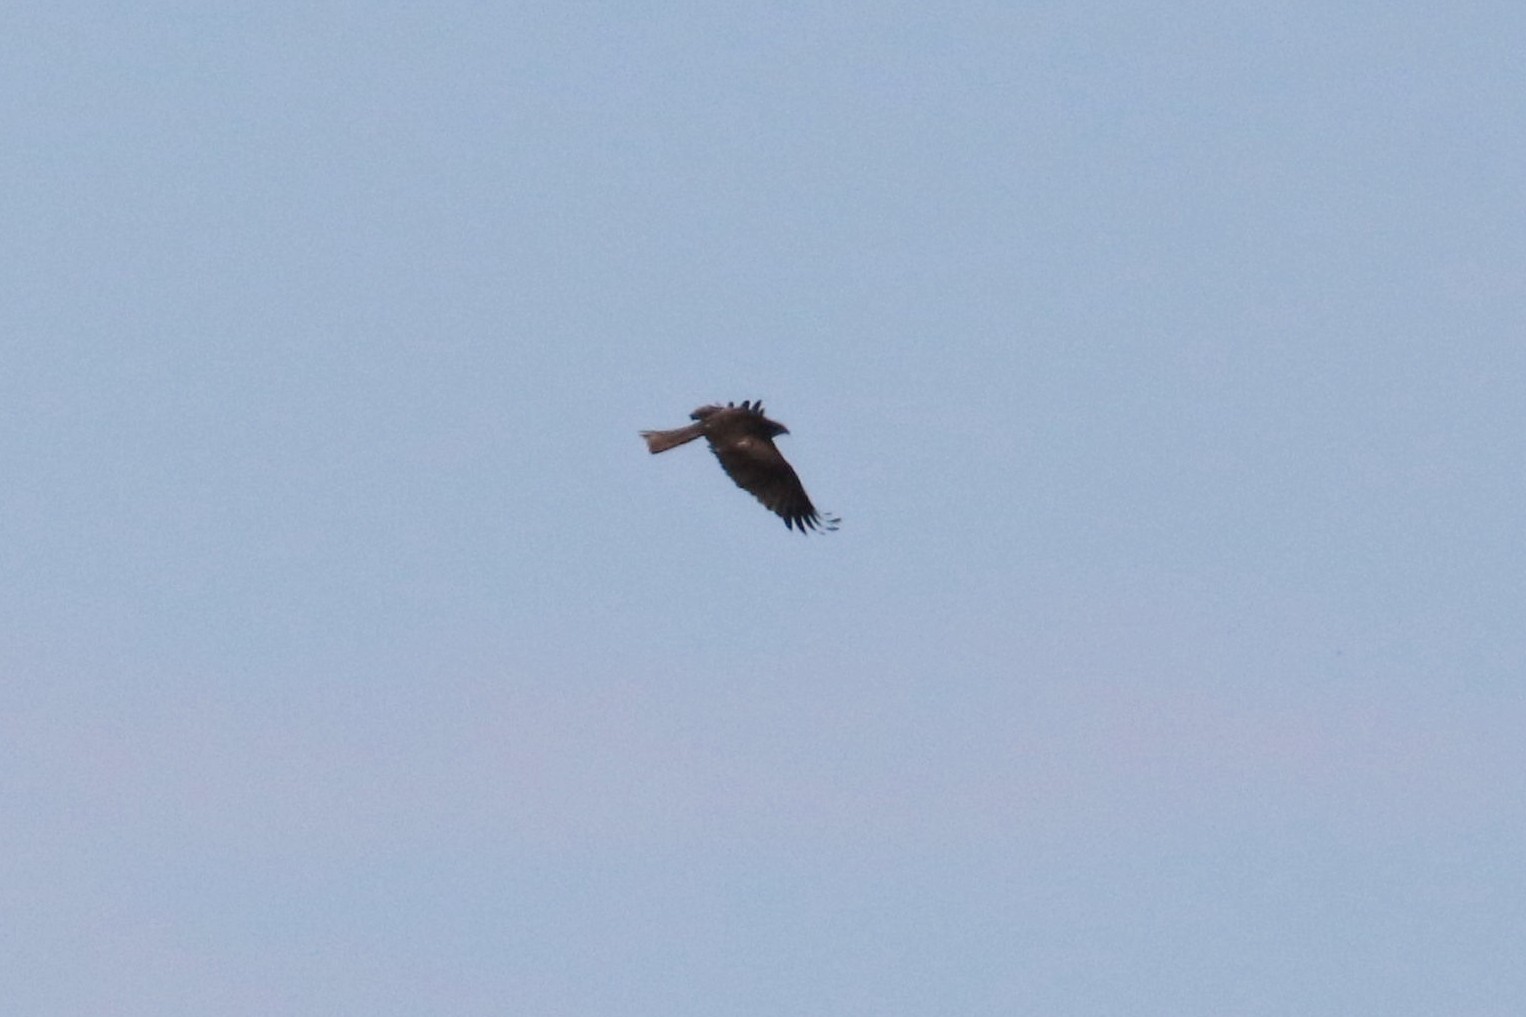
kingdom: Animalia
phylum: Chordata
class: Aves
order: Accipitriformes
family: Accipitridae
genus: Milvus
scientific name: Milvus migrans
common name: Black kite
